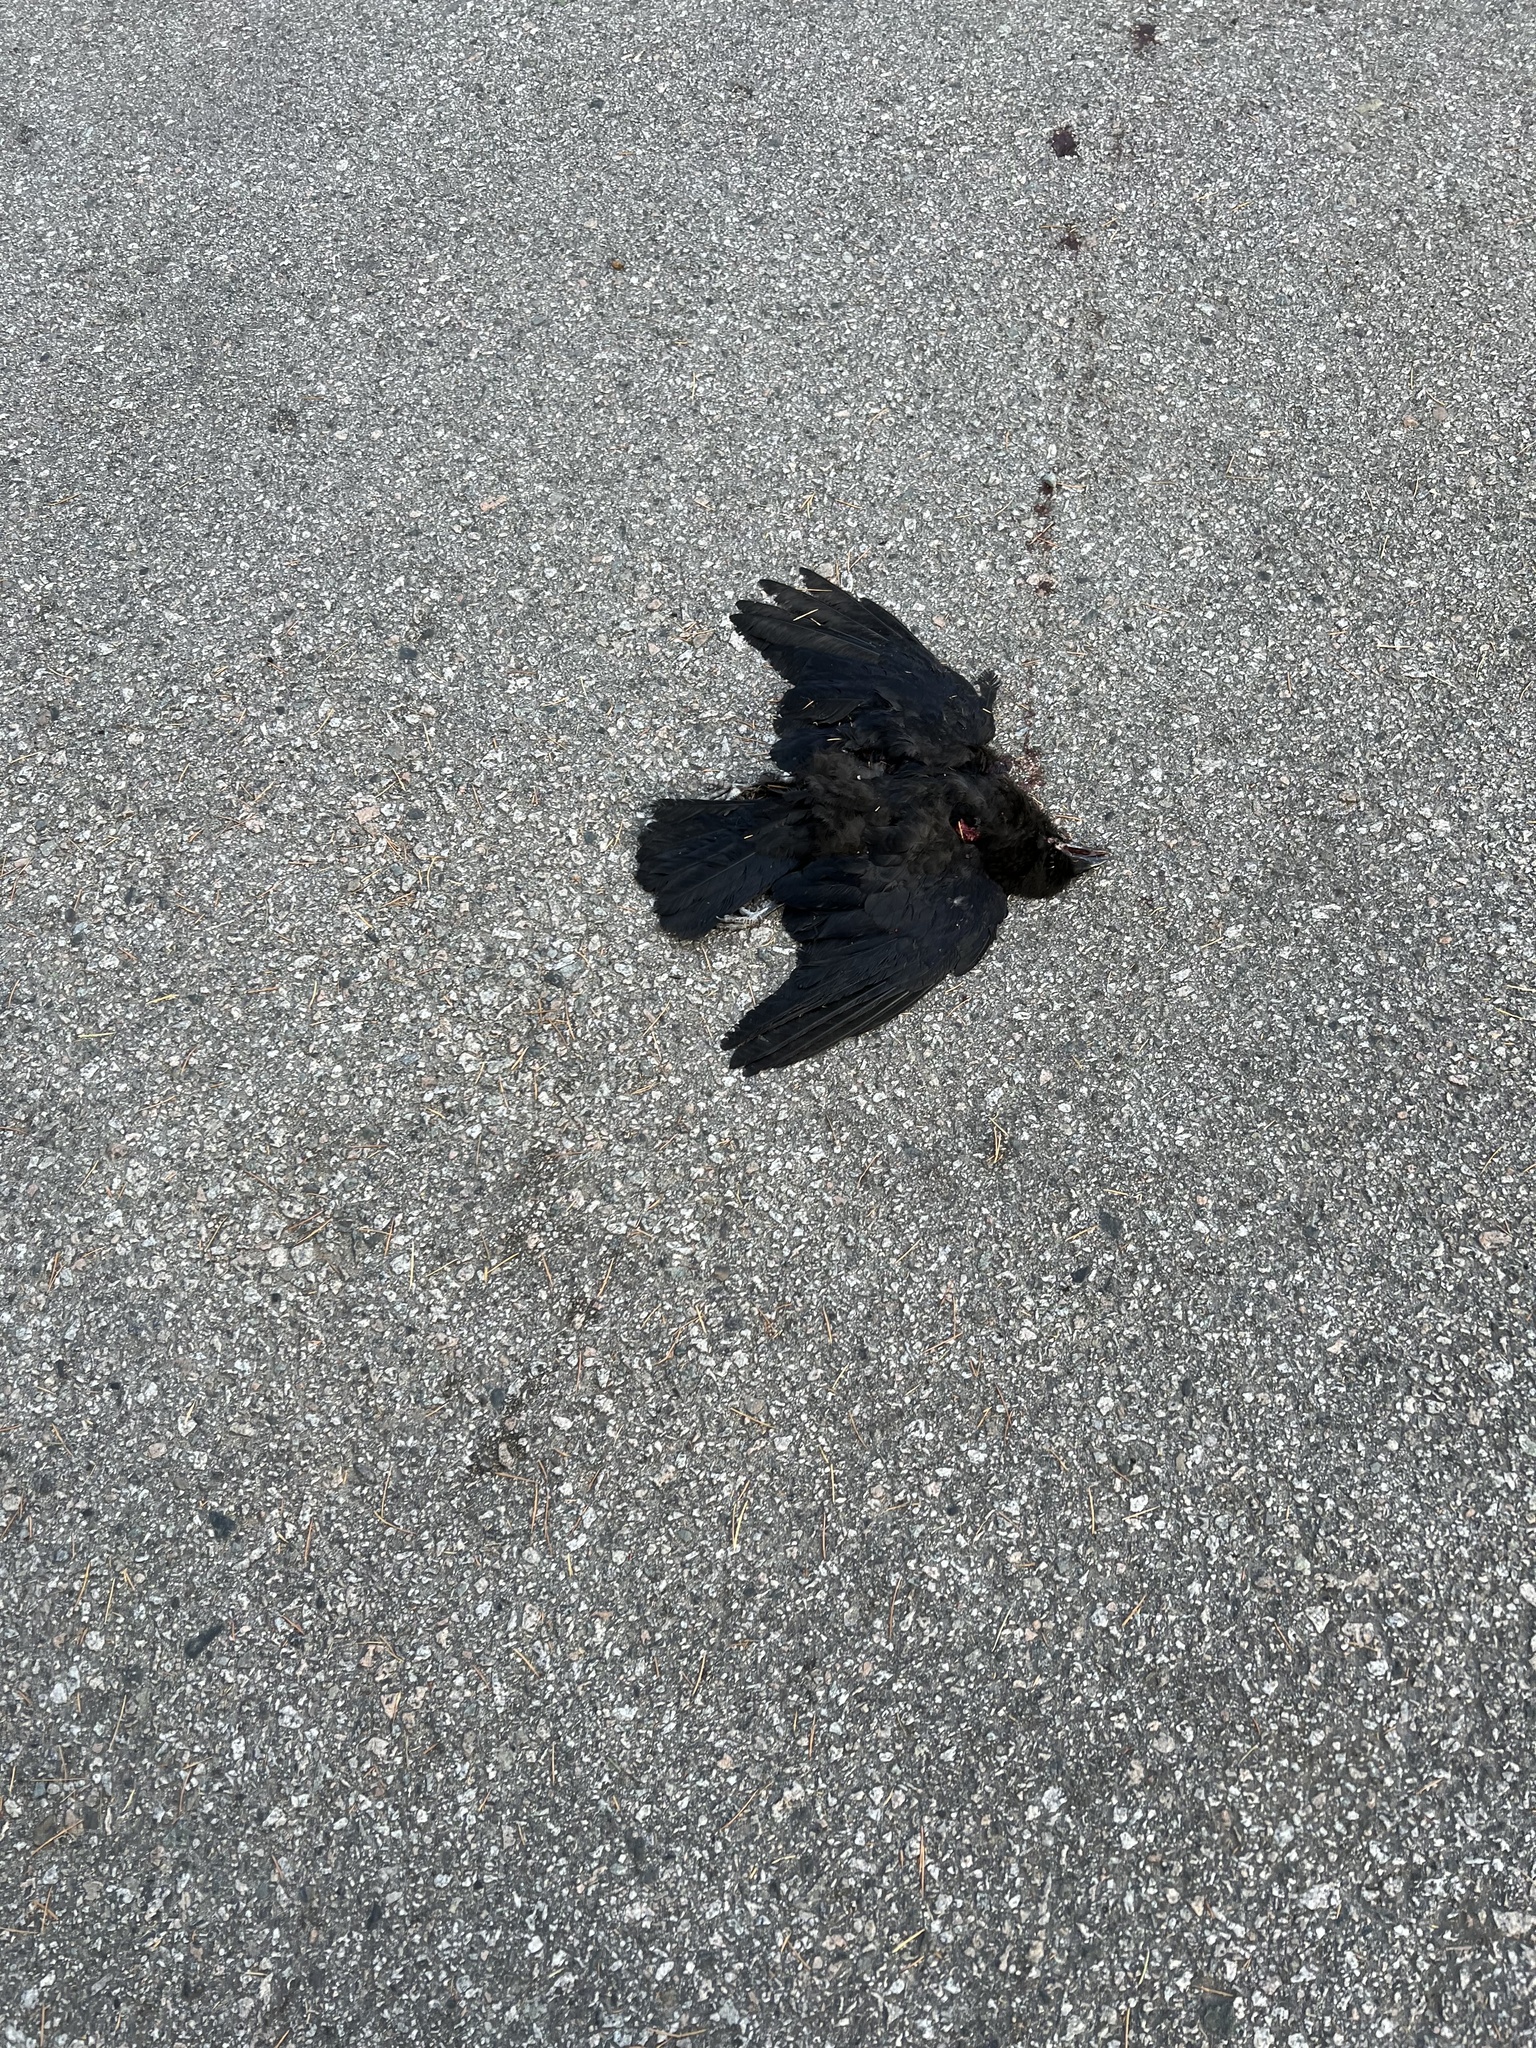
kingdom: Animalia
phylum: Chordata
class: Aves
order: Passeriformes
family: Corvidae
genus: Corvus
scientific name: Corvus brachyrhynchos
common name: American crow
